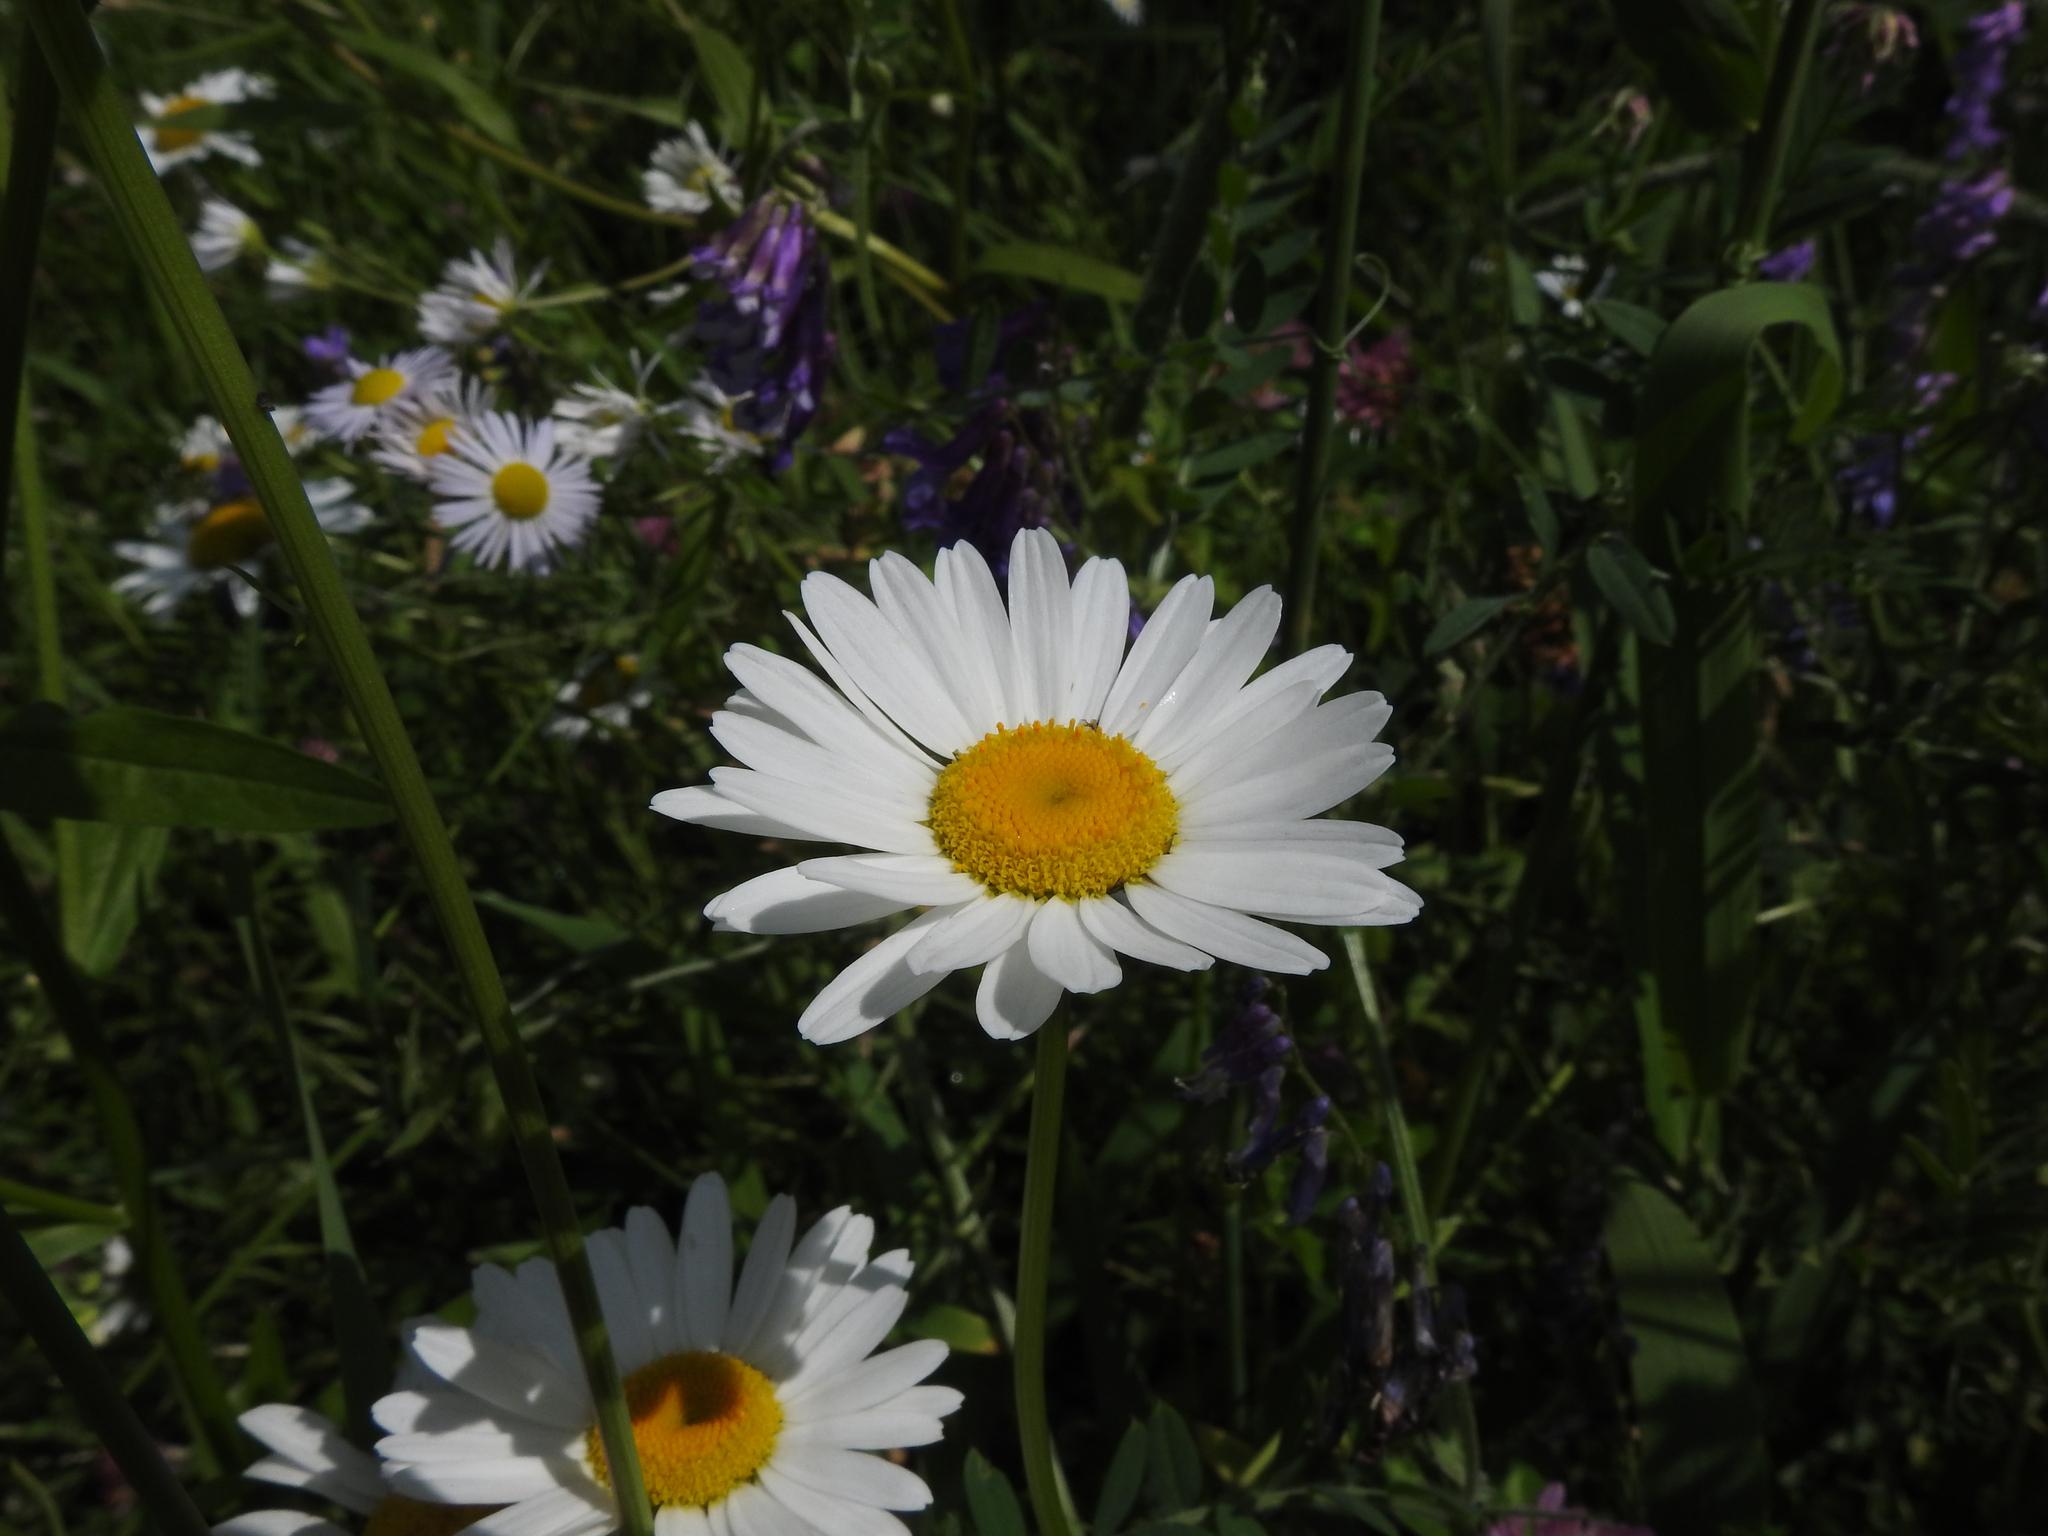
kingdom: Plantae
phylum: Tracheophyta
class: Magnoliopsida
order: Asterales
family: Asteraceae
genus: Leucanthemum
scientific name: Leucanthemum vulgare
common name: Oxeye daisy
